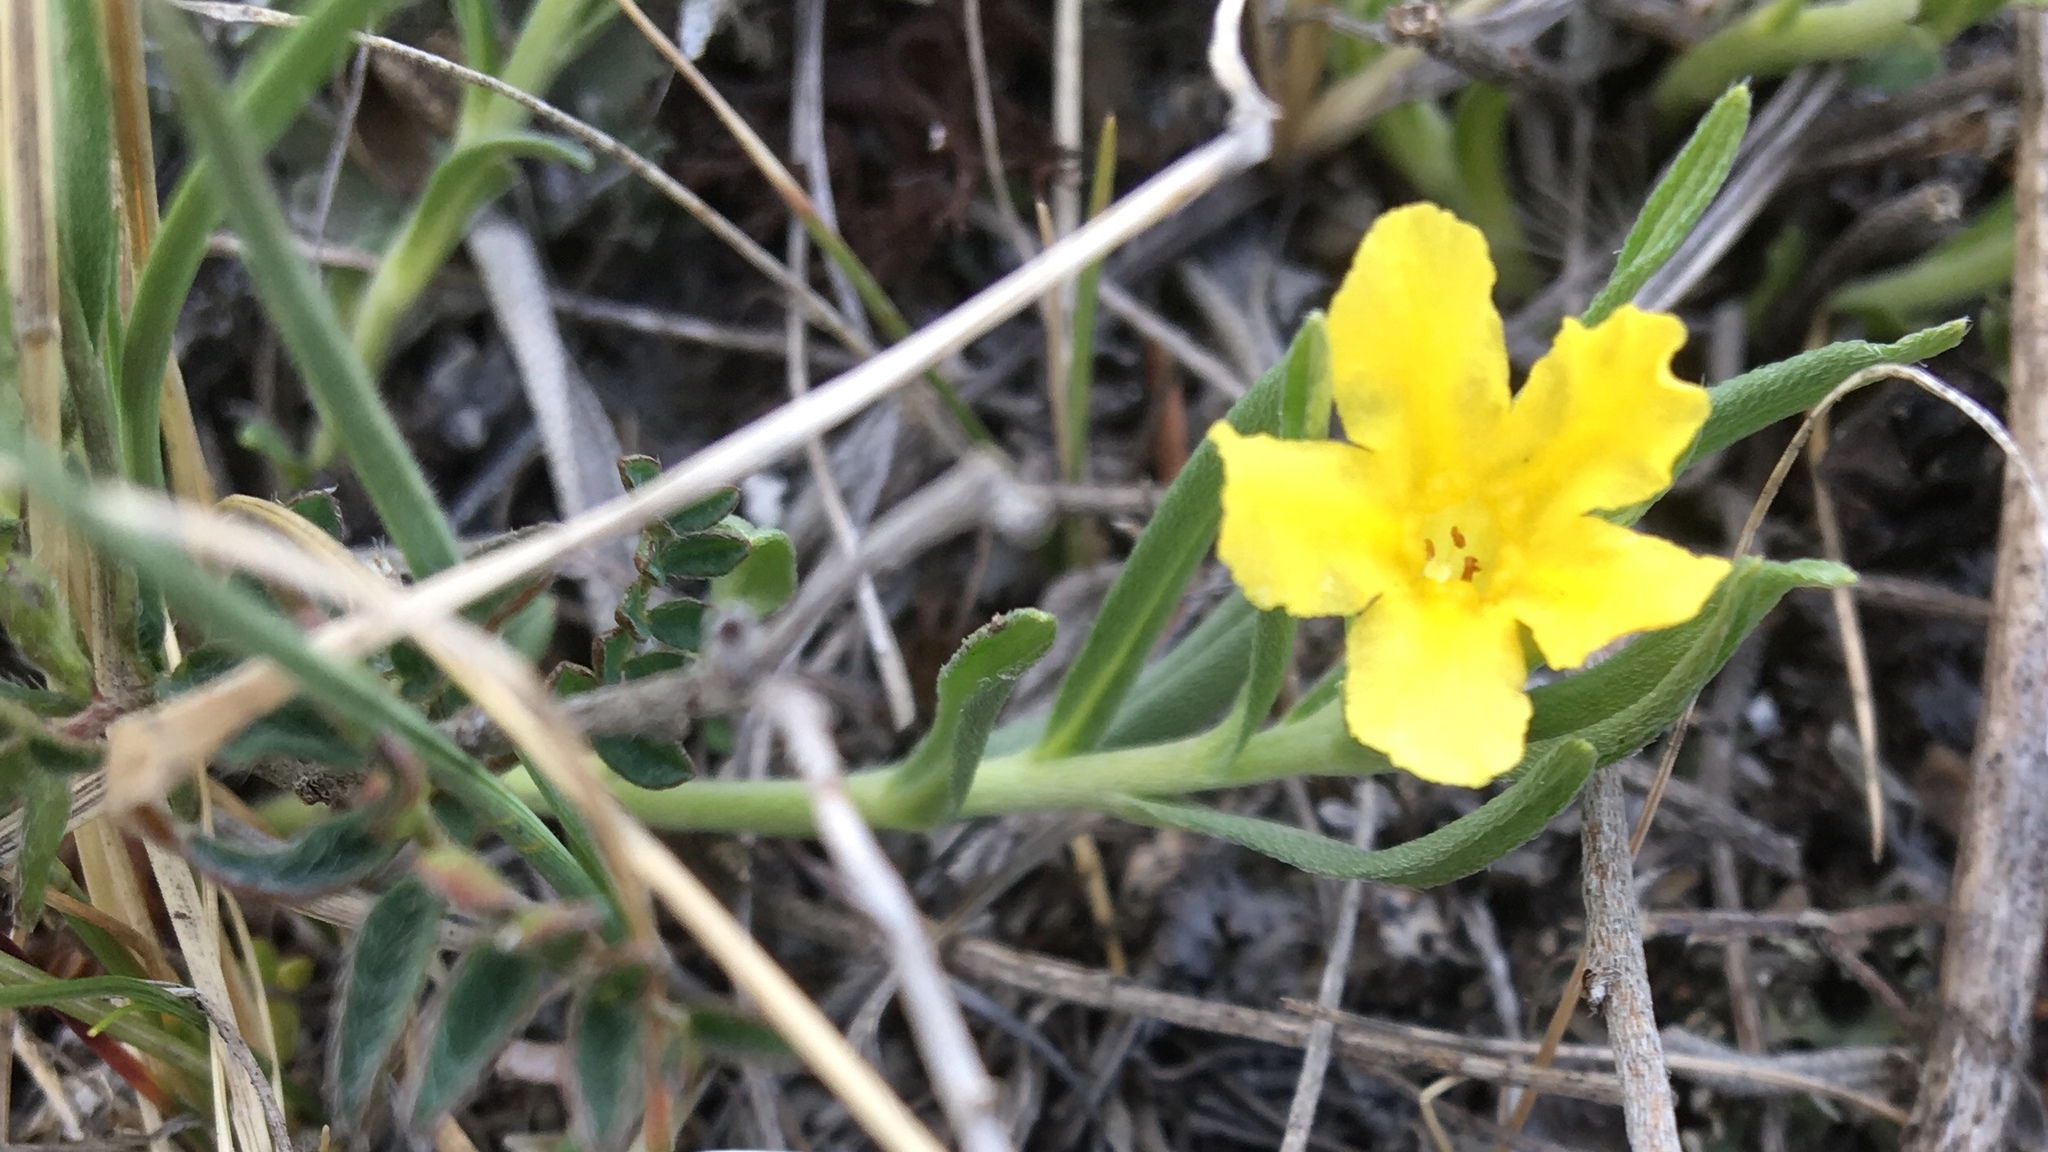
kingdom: Plantae
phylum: Tracheophyta
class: Magnoliopsida
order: Boraginales
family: Boraginaceae
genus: Lithospermum
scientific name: Lithospermum incisum
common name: Fringed gromwell
